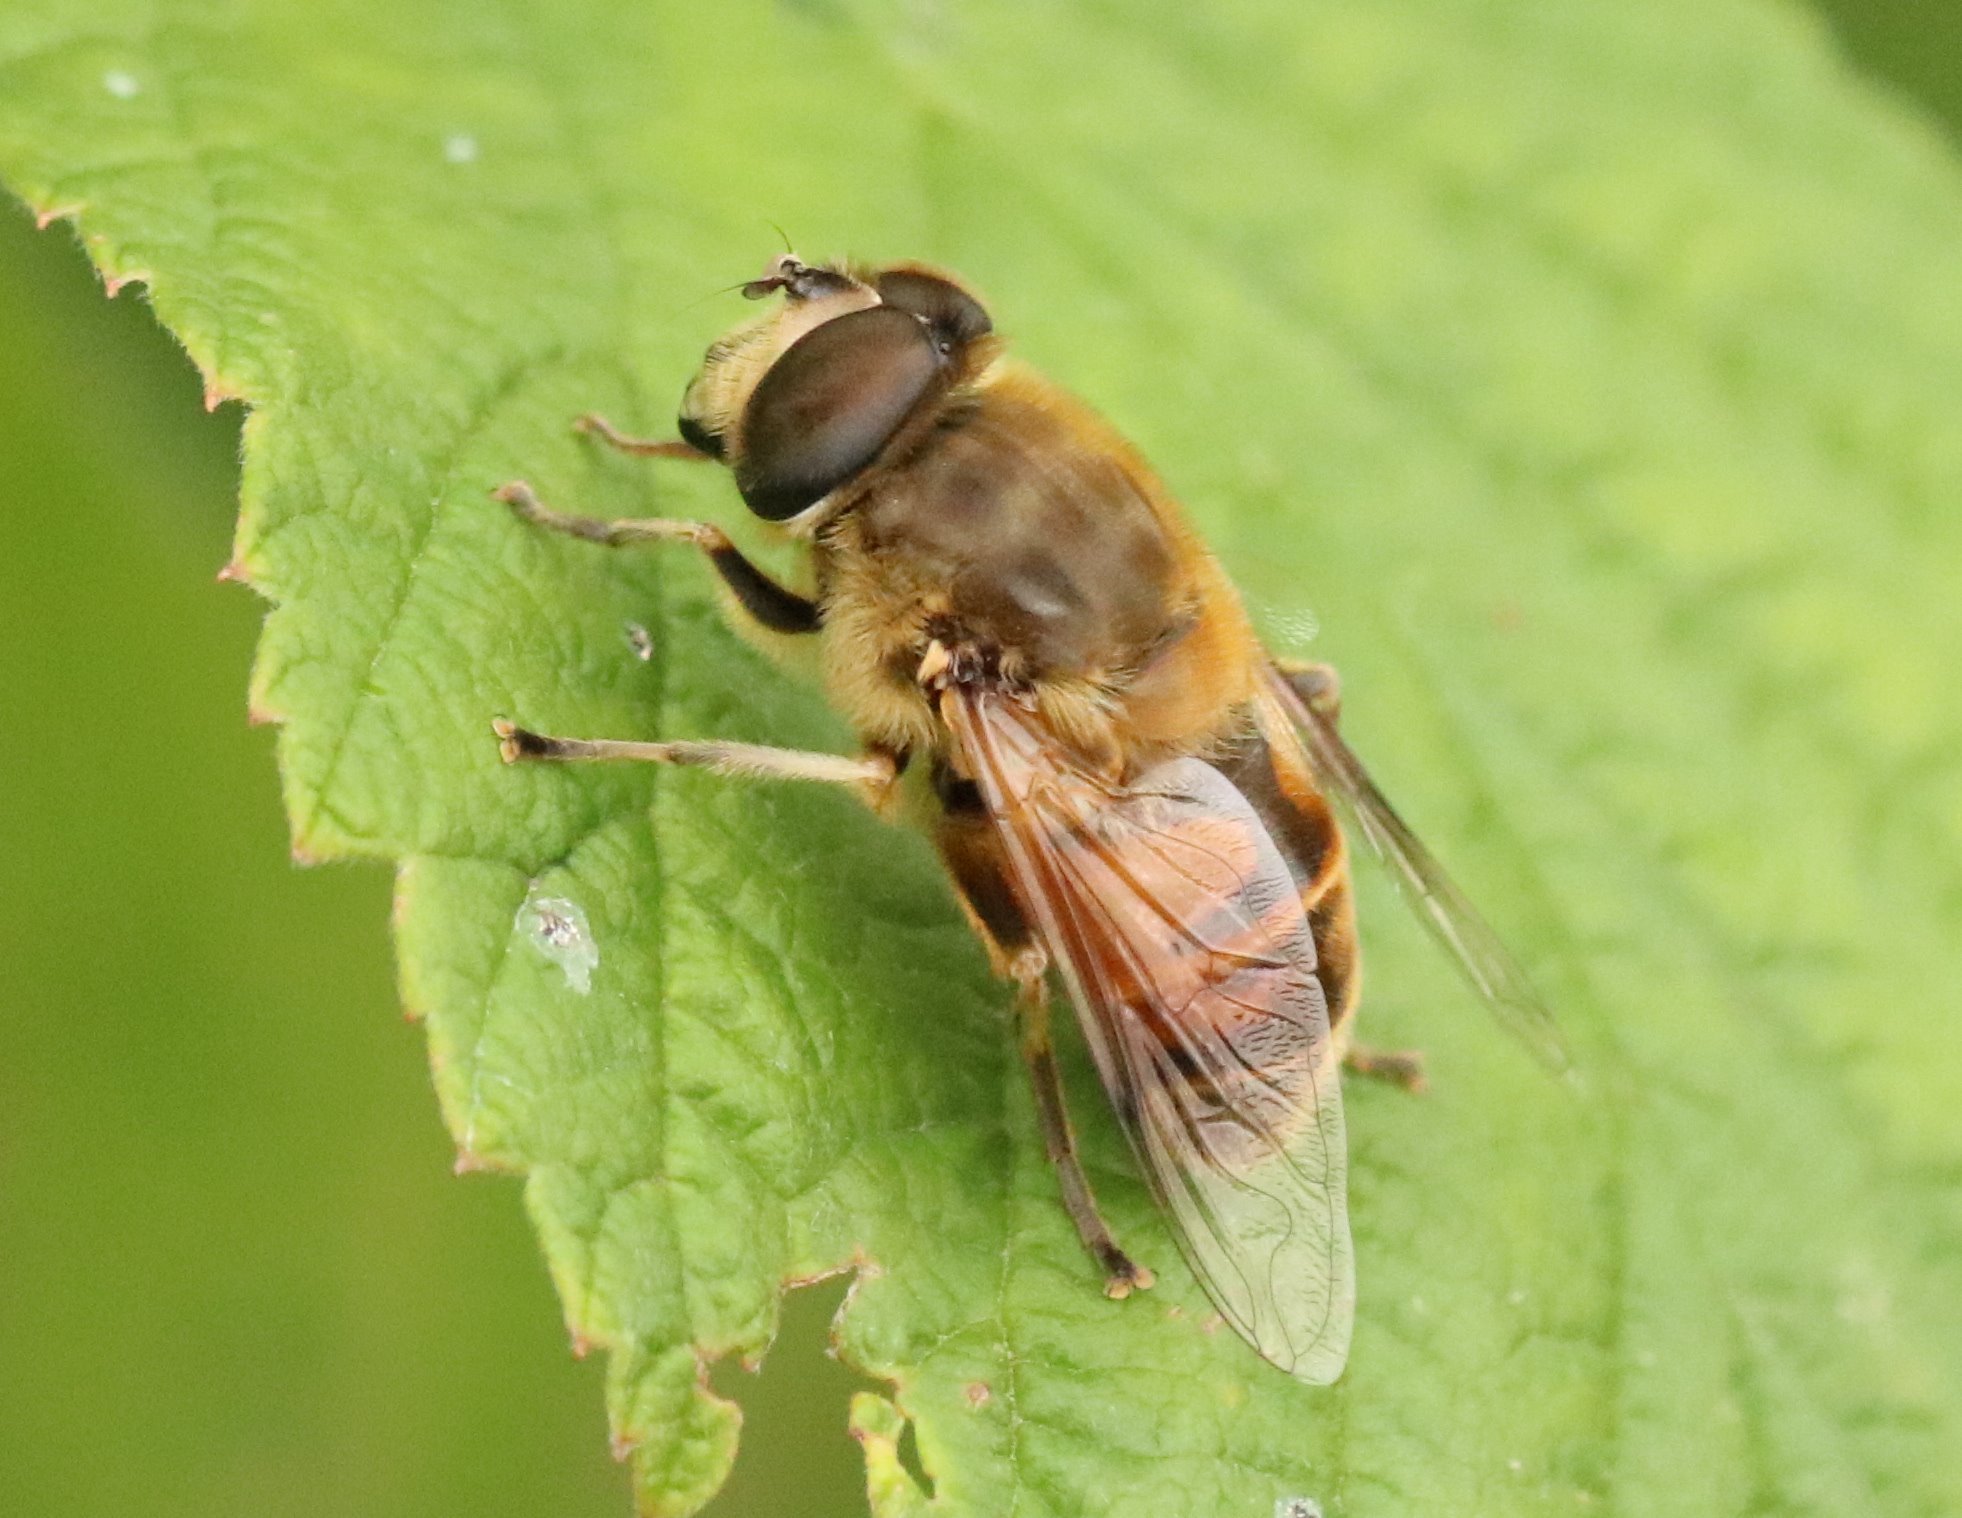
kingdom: Animalia
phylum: Arthropoda
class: Insecta
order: Diptera
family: Syrphidae
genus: Eristalis
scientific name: Eristalis tenax
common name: Drone fly
